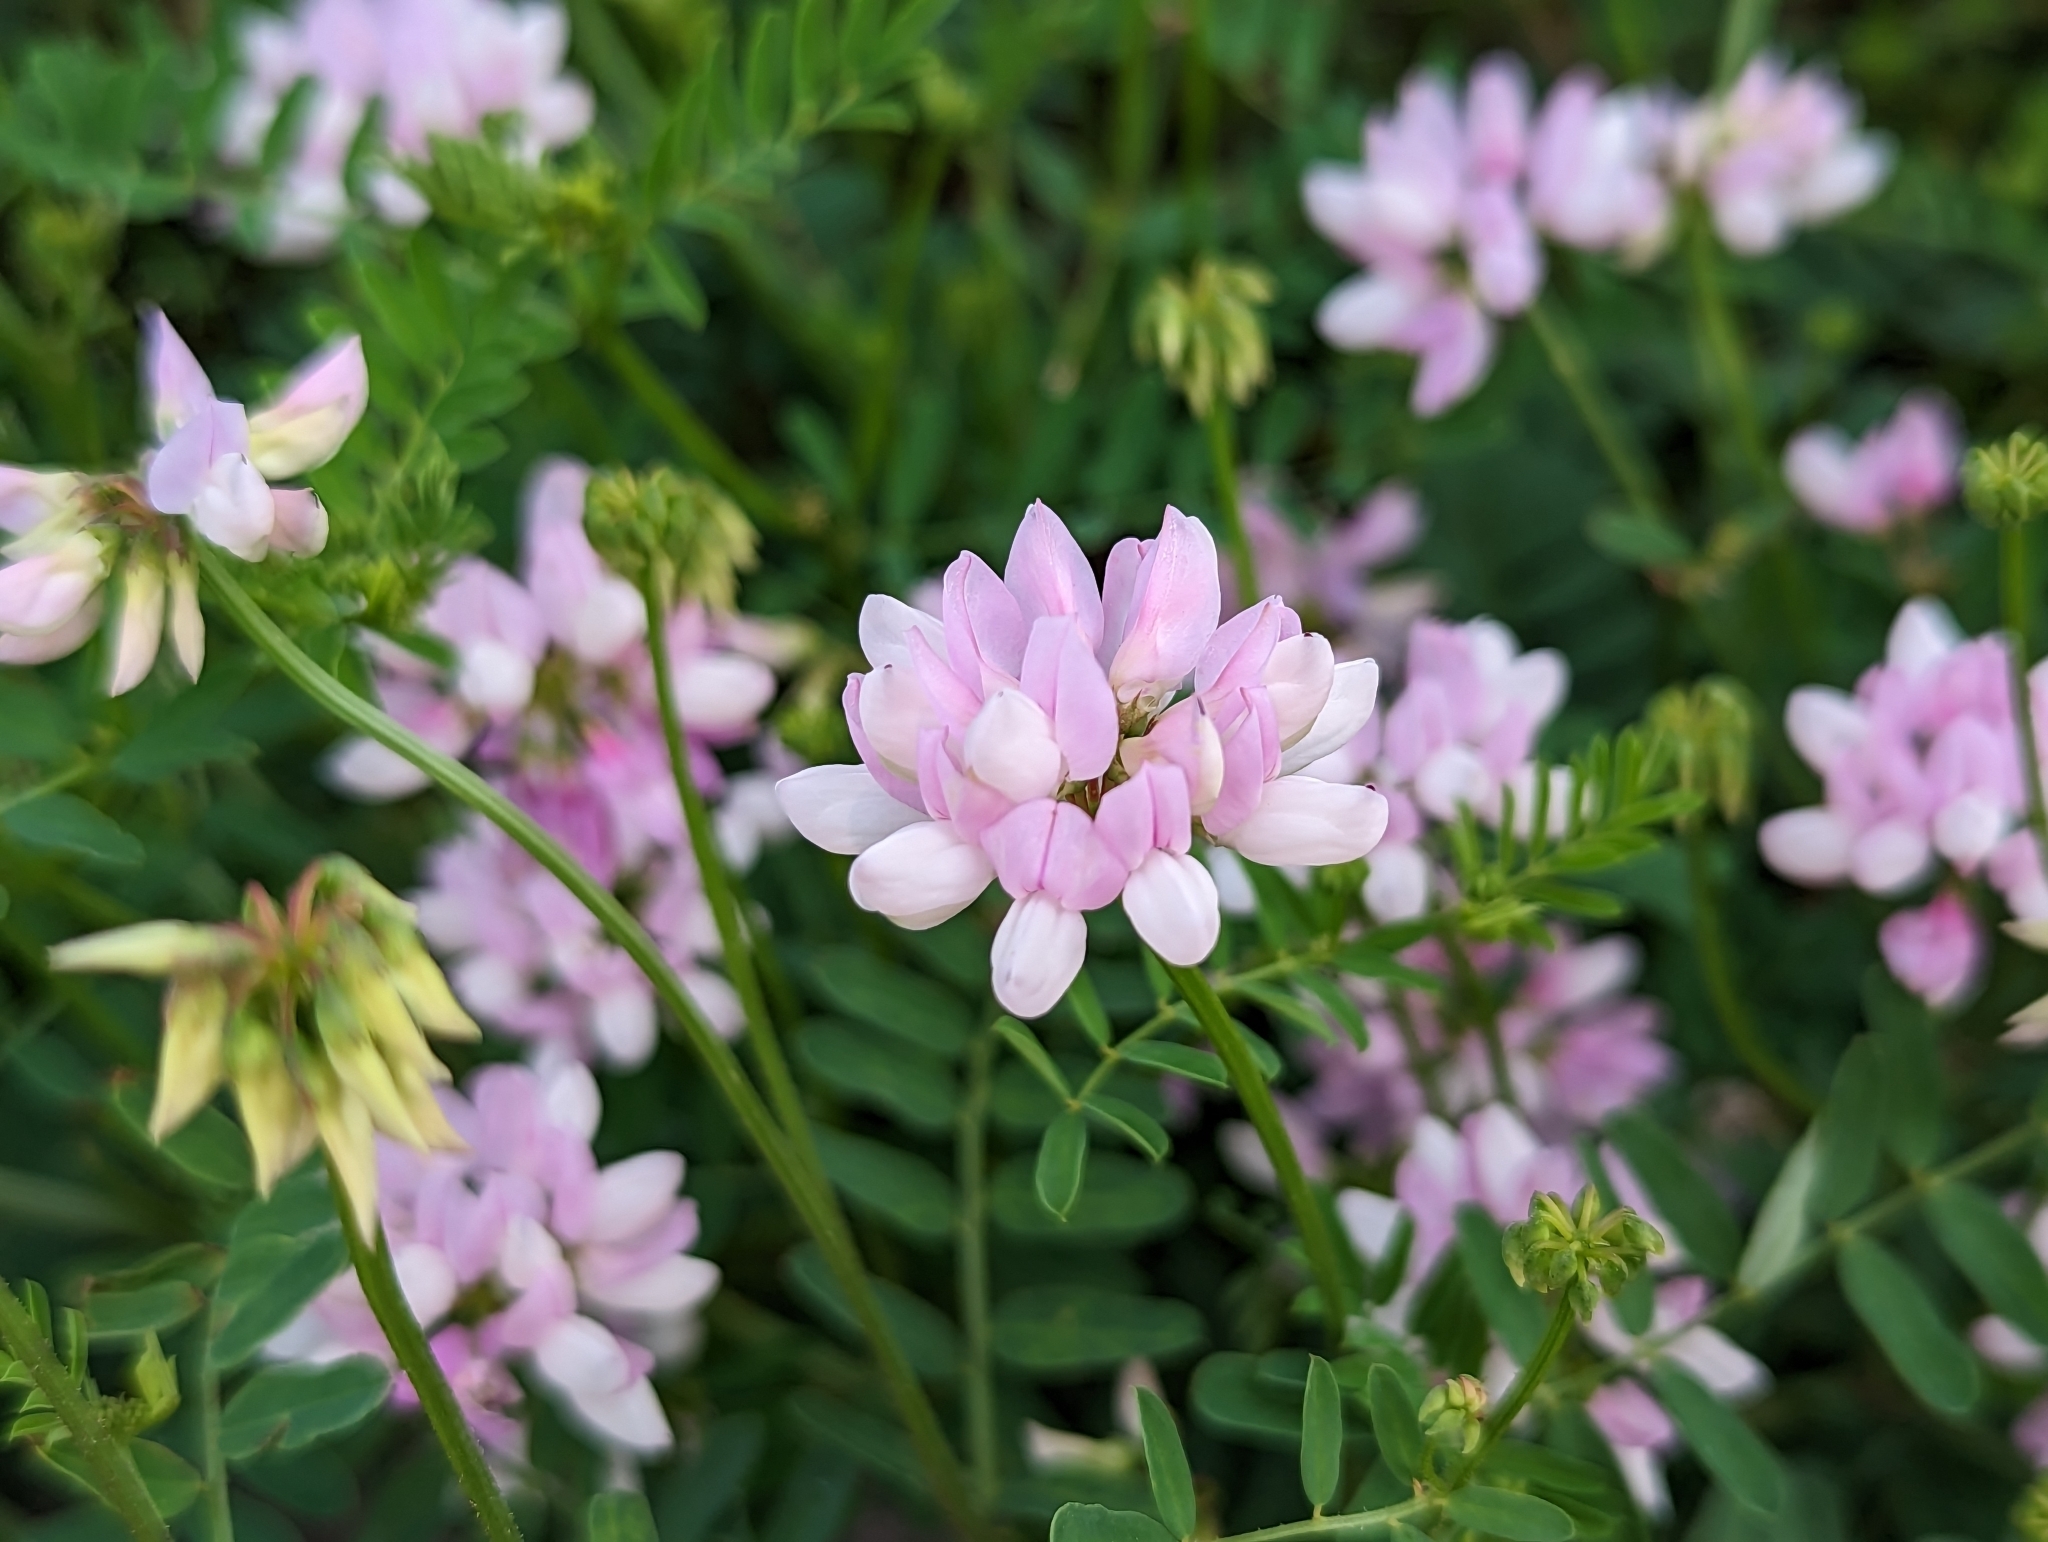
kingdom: Plantae
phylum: Tracheophyta
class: Magnoliopsida
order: Fabales
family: Fabaceae
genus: Coronilla
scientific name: Coronilla varia
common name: Crownvetch
